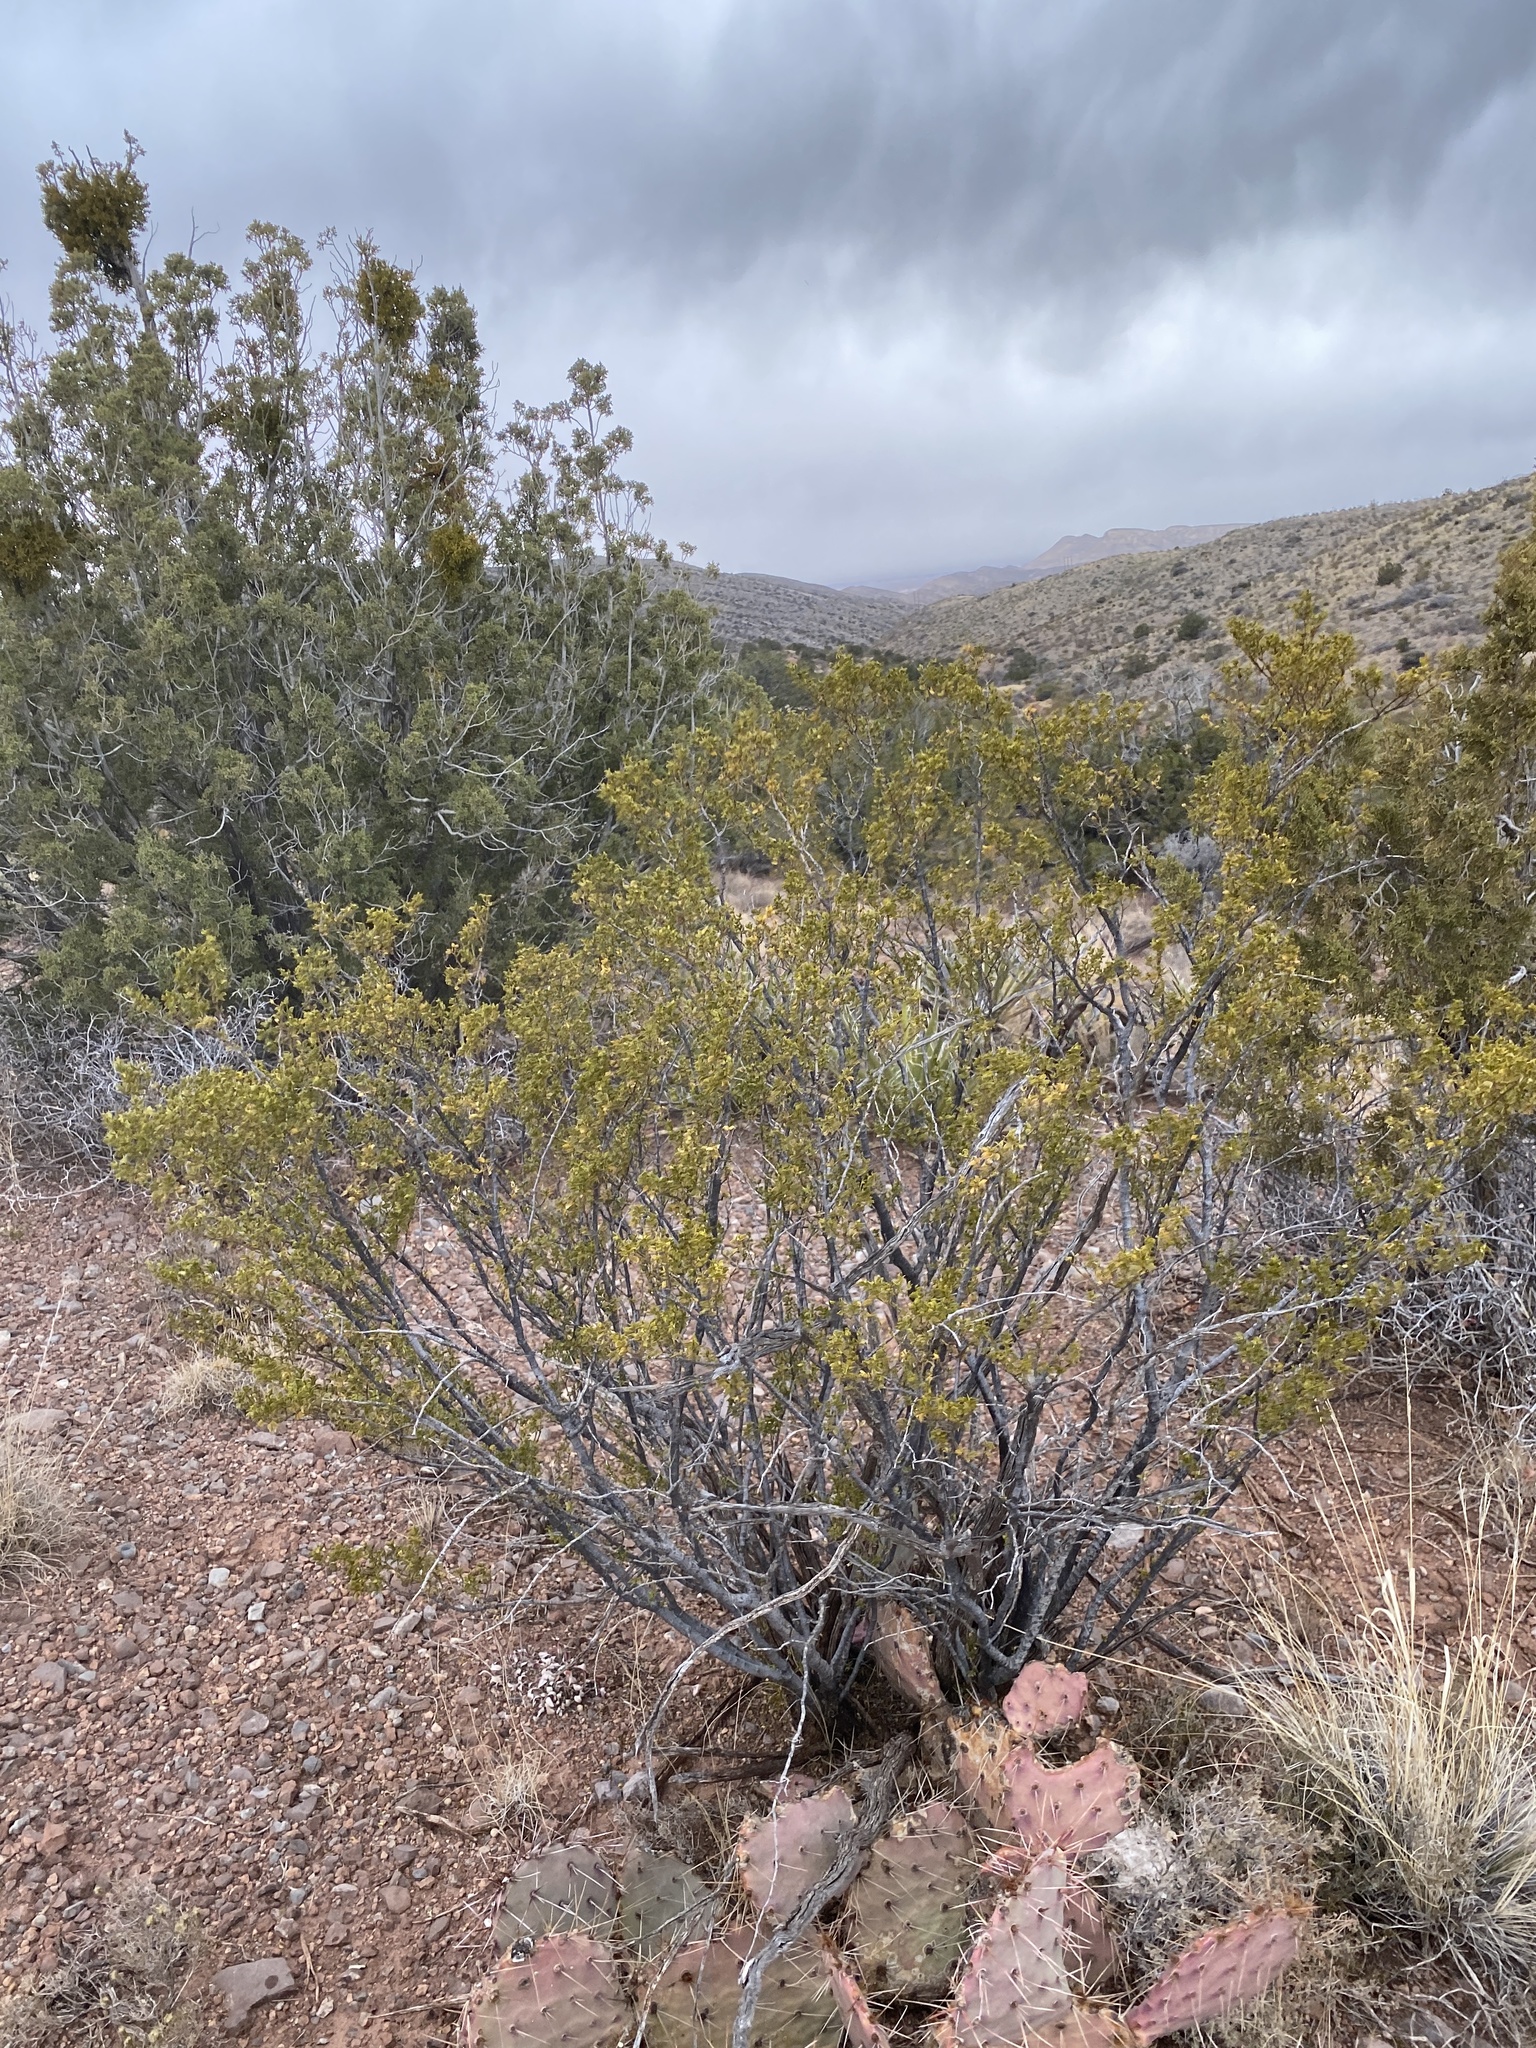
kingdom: Plantae
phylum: Tracheophyta
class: Magnoliopsida
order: Zygophyllales
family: Zygophyllaceae
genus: Larrea
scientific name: Larrea tridentata
